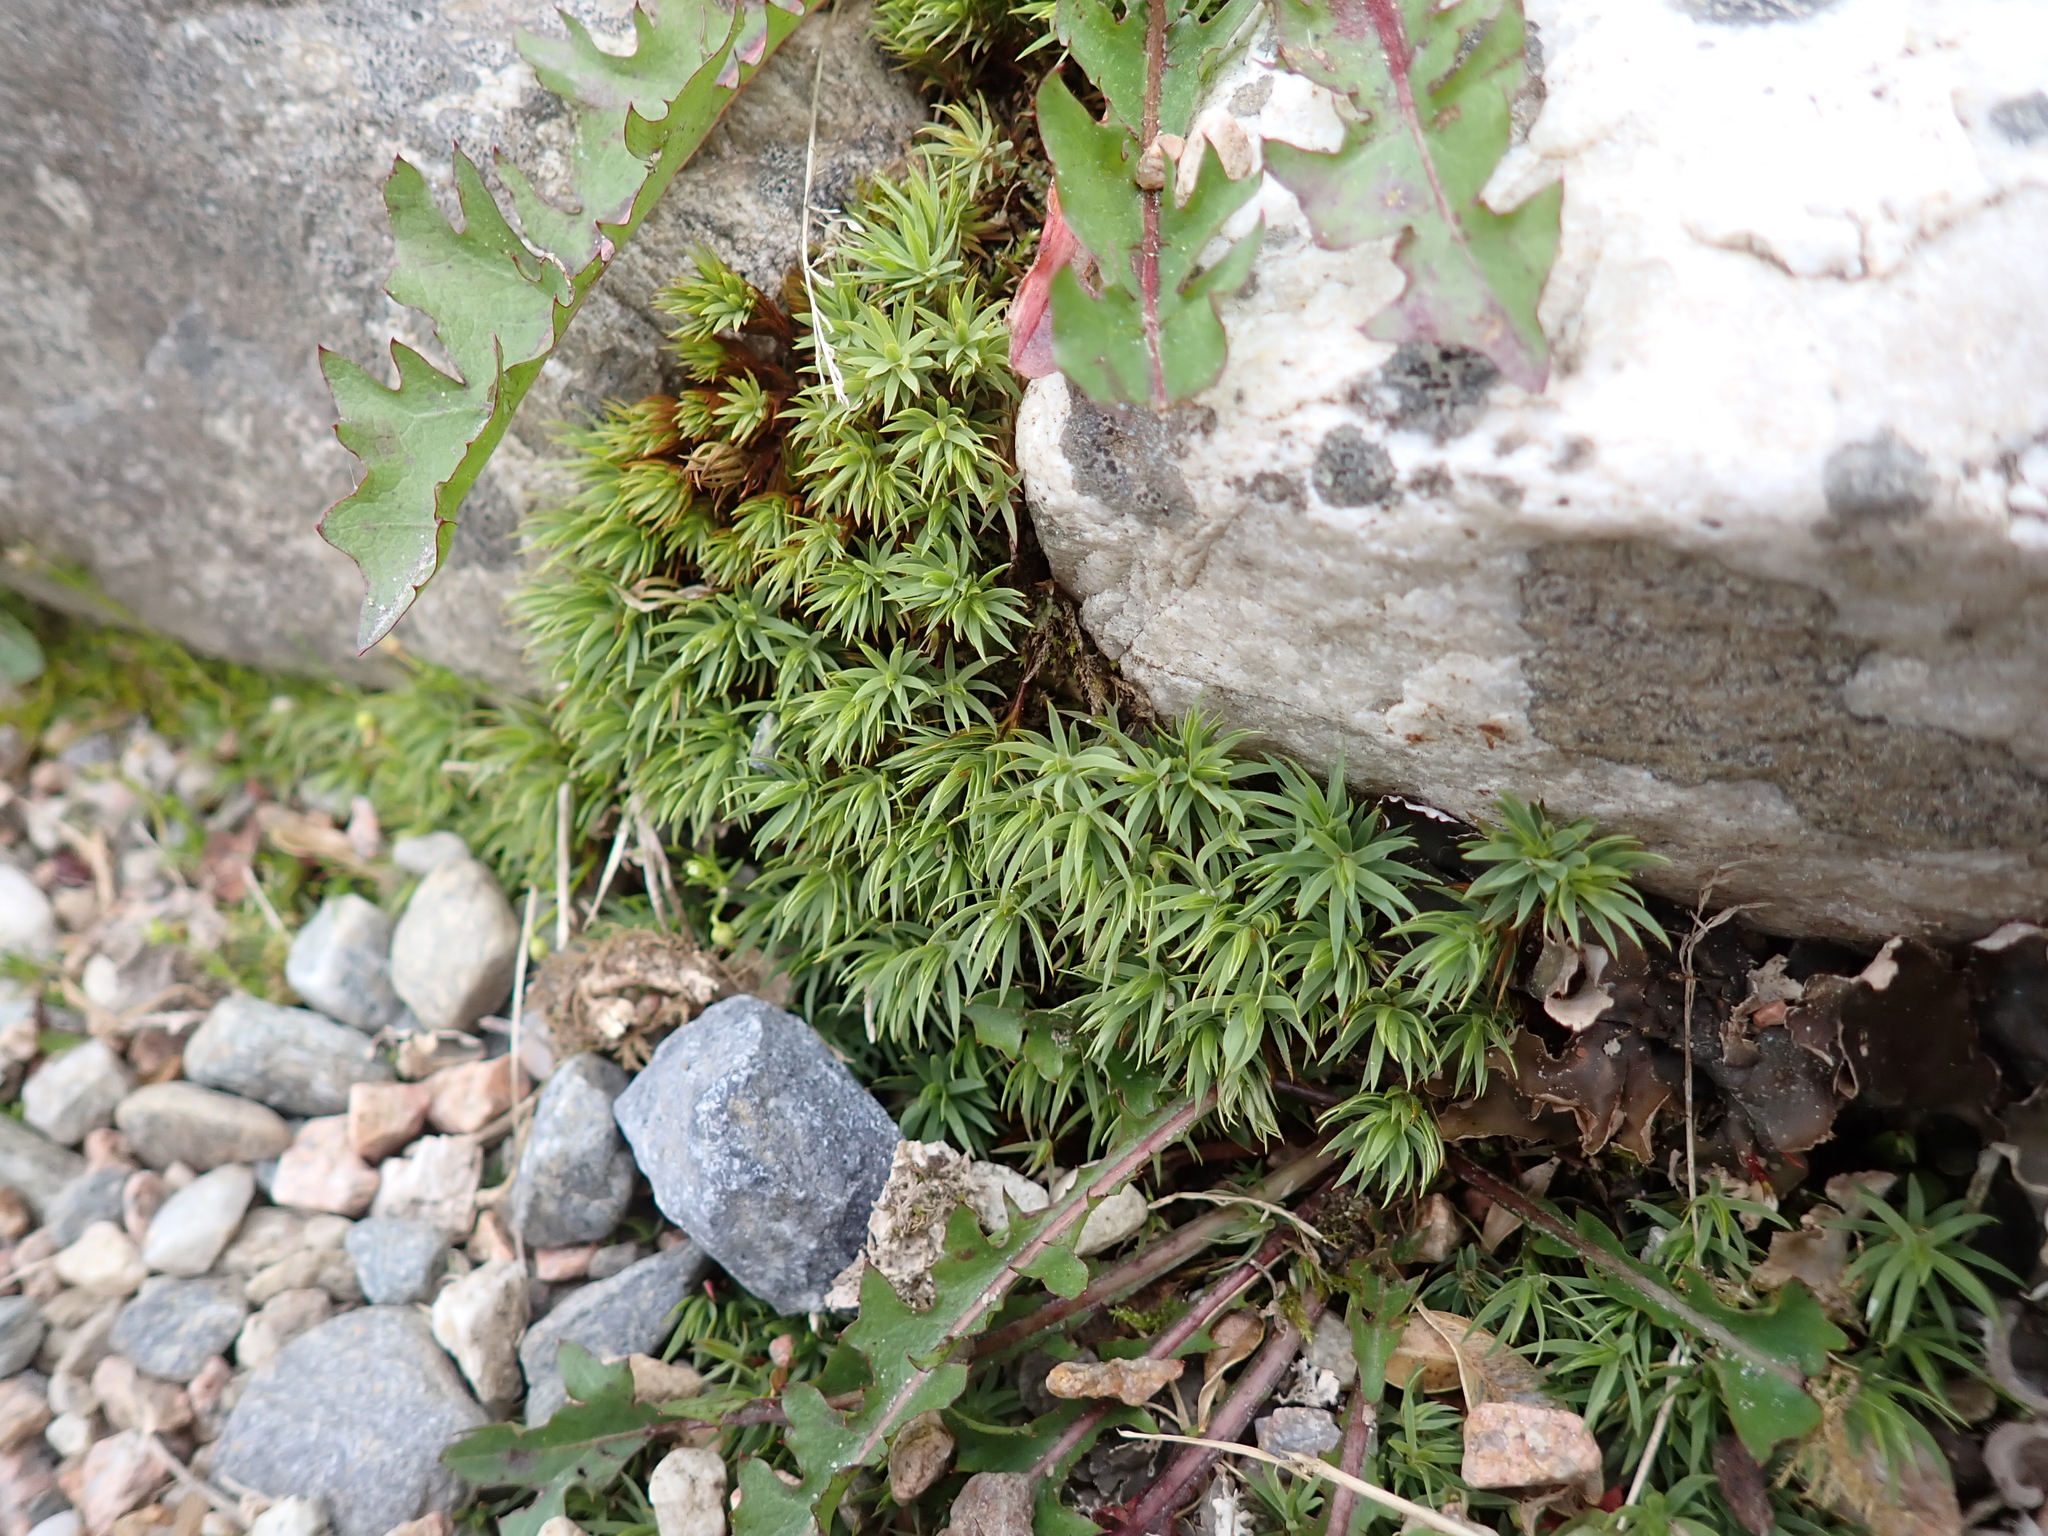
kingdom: Plantae
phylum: Bryophyta
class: Polytrichopsida
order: Polytrichales
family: Polytrichaceae
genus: Pogonatum
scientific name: Pogonatum urnigerum
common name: Urn hair moss
